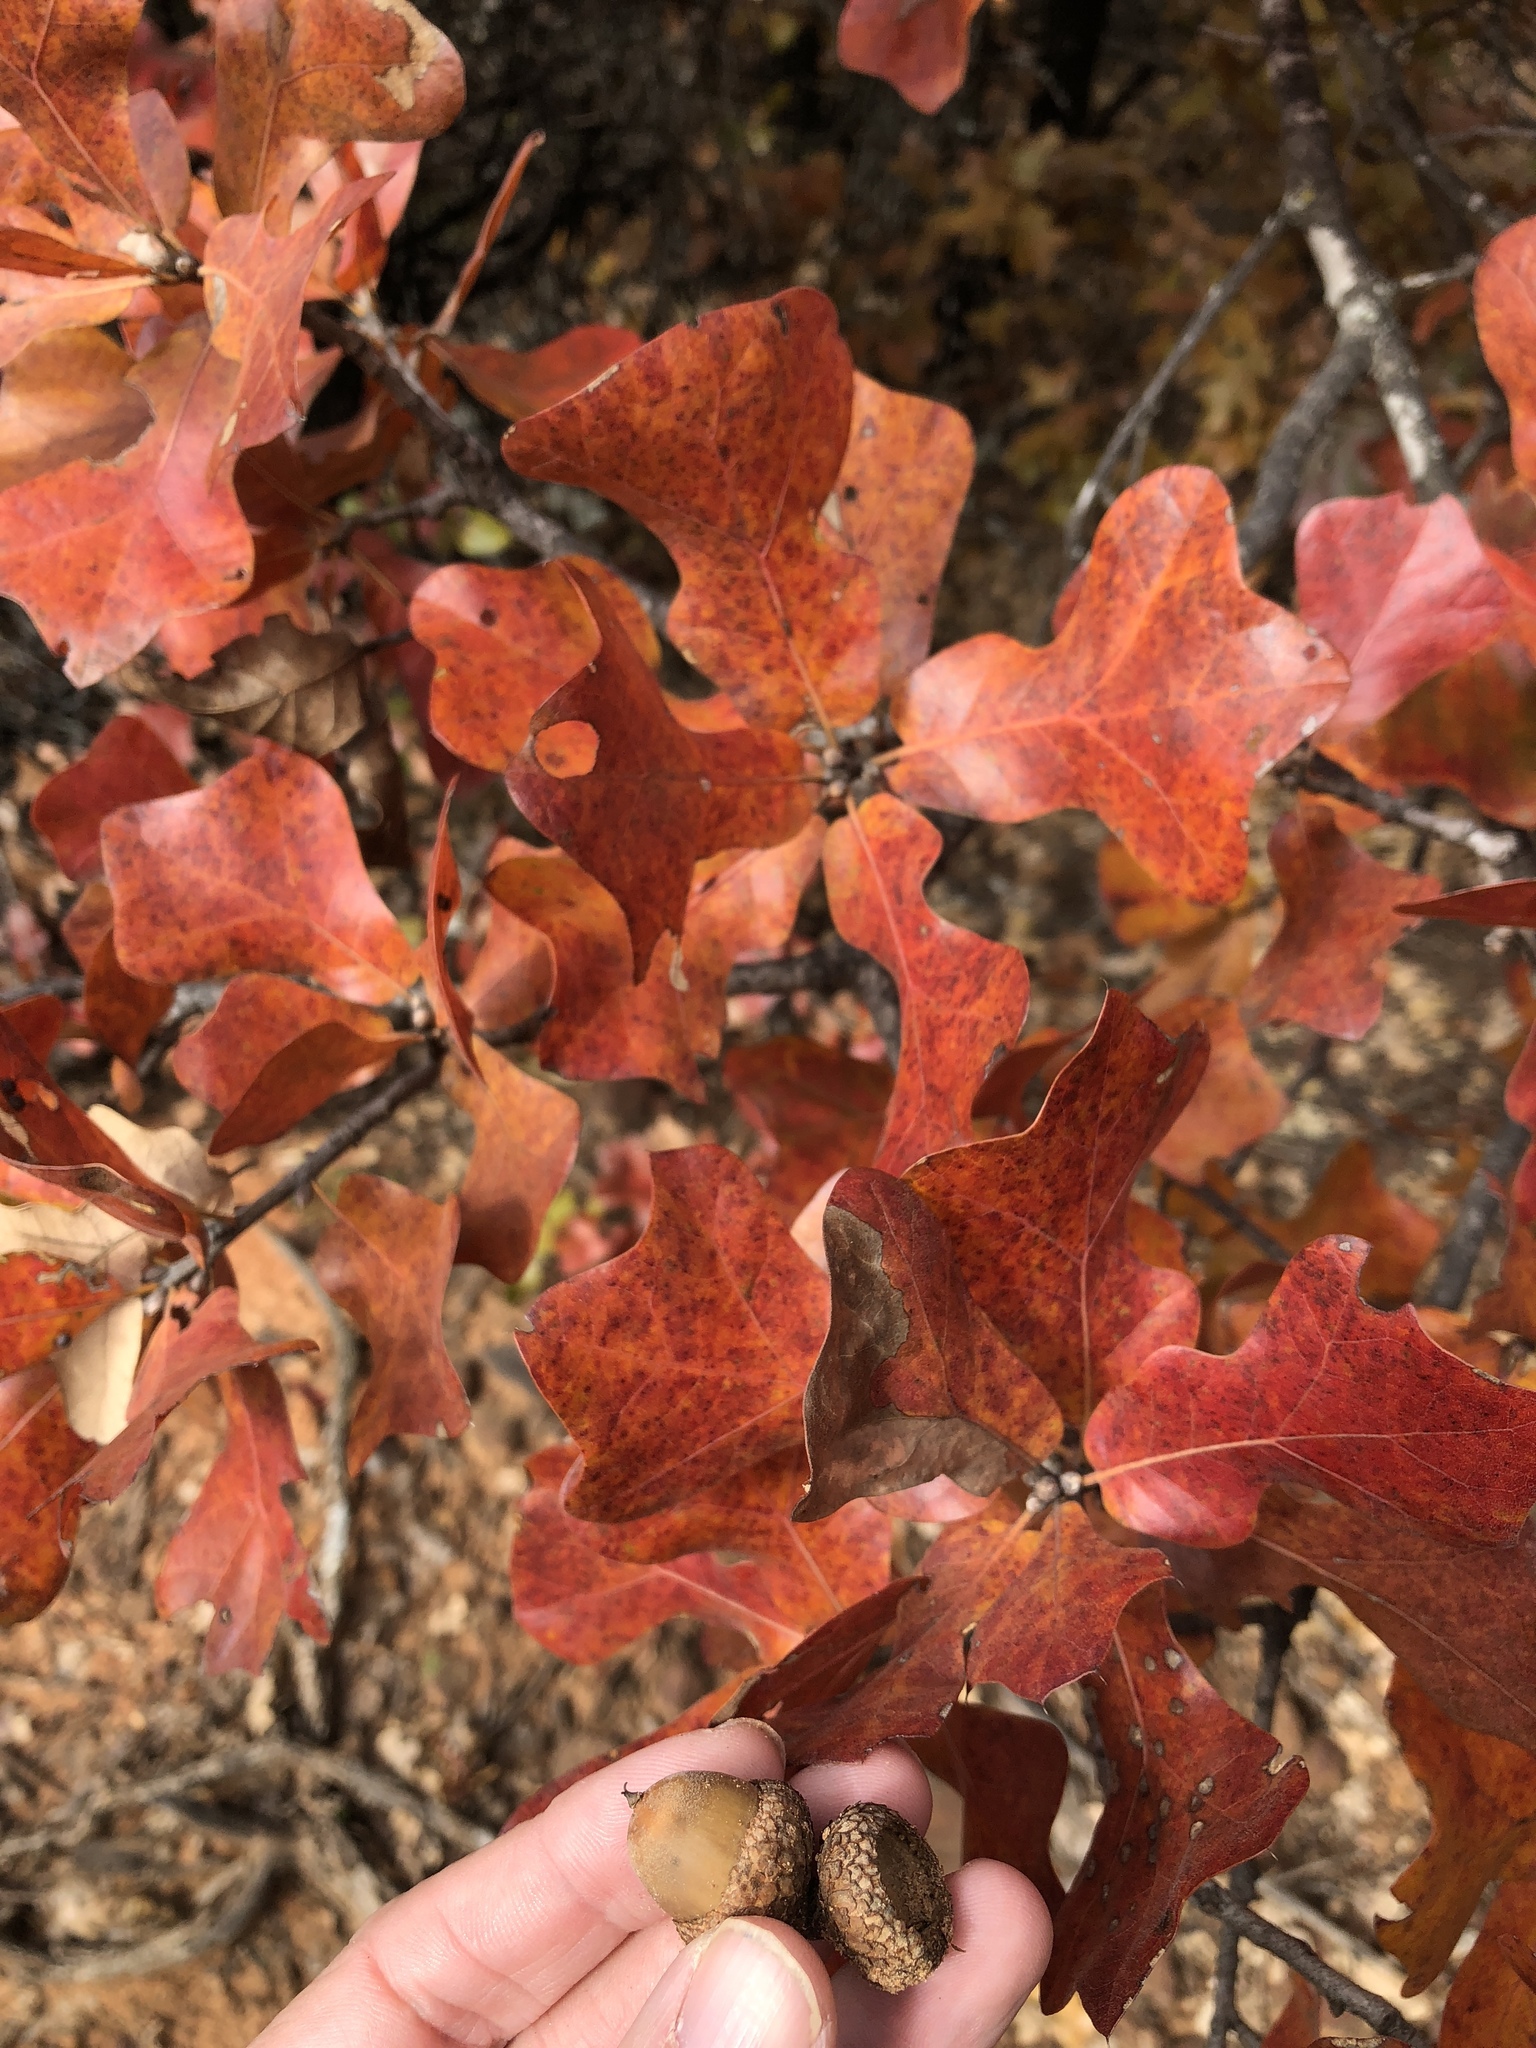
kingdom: Plantae
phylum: Tracheophyta
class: Magnoliopsida
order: Fagales
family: Fagaceae
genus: Quercus
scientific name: Quercus marilandica
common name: Blackjack oak
